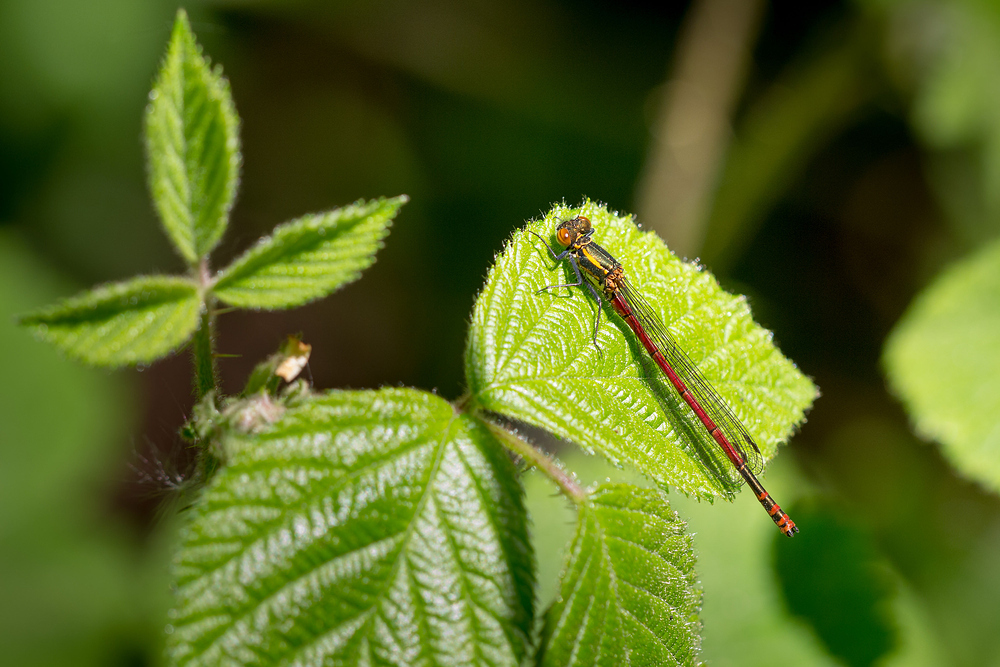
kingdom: Animalia
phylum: Arthropoda
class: Insecta
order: Odonata
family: Coenagrionidae
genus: Pyrrhosoma
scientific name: Pyrrhosoma nymphula
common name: Large red damsel
